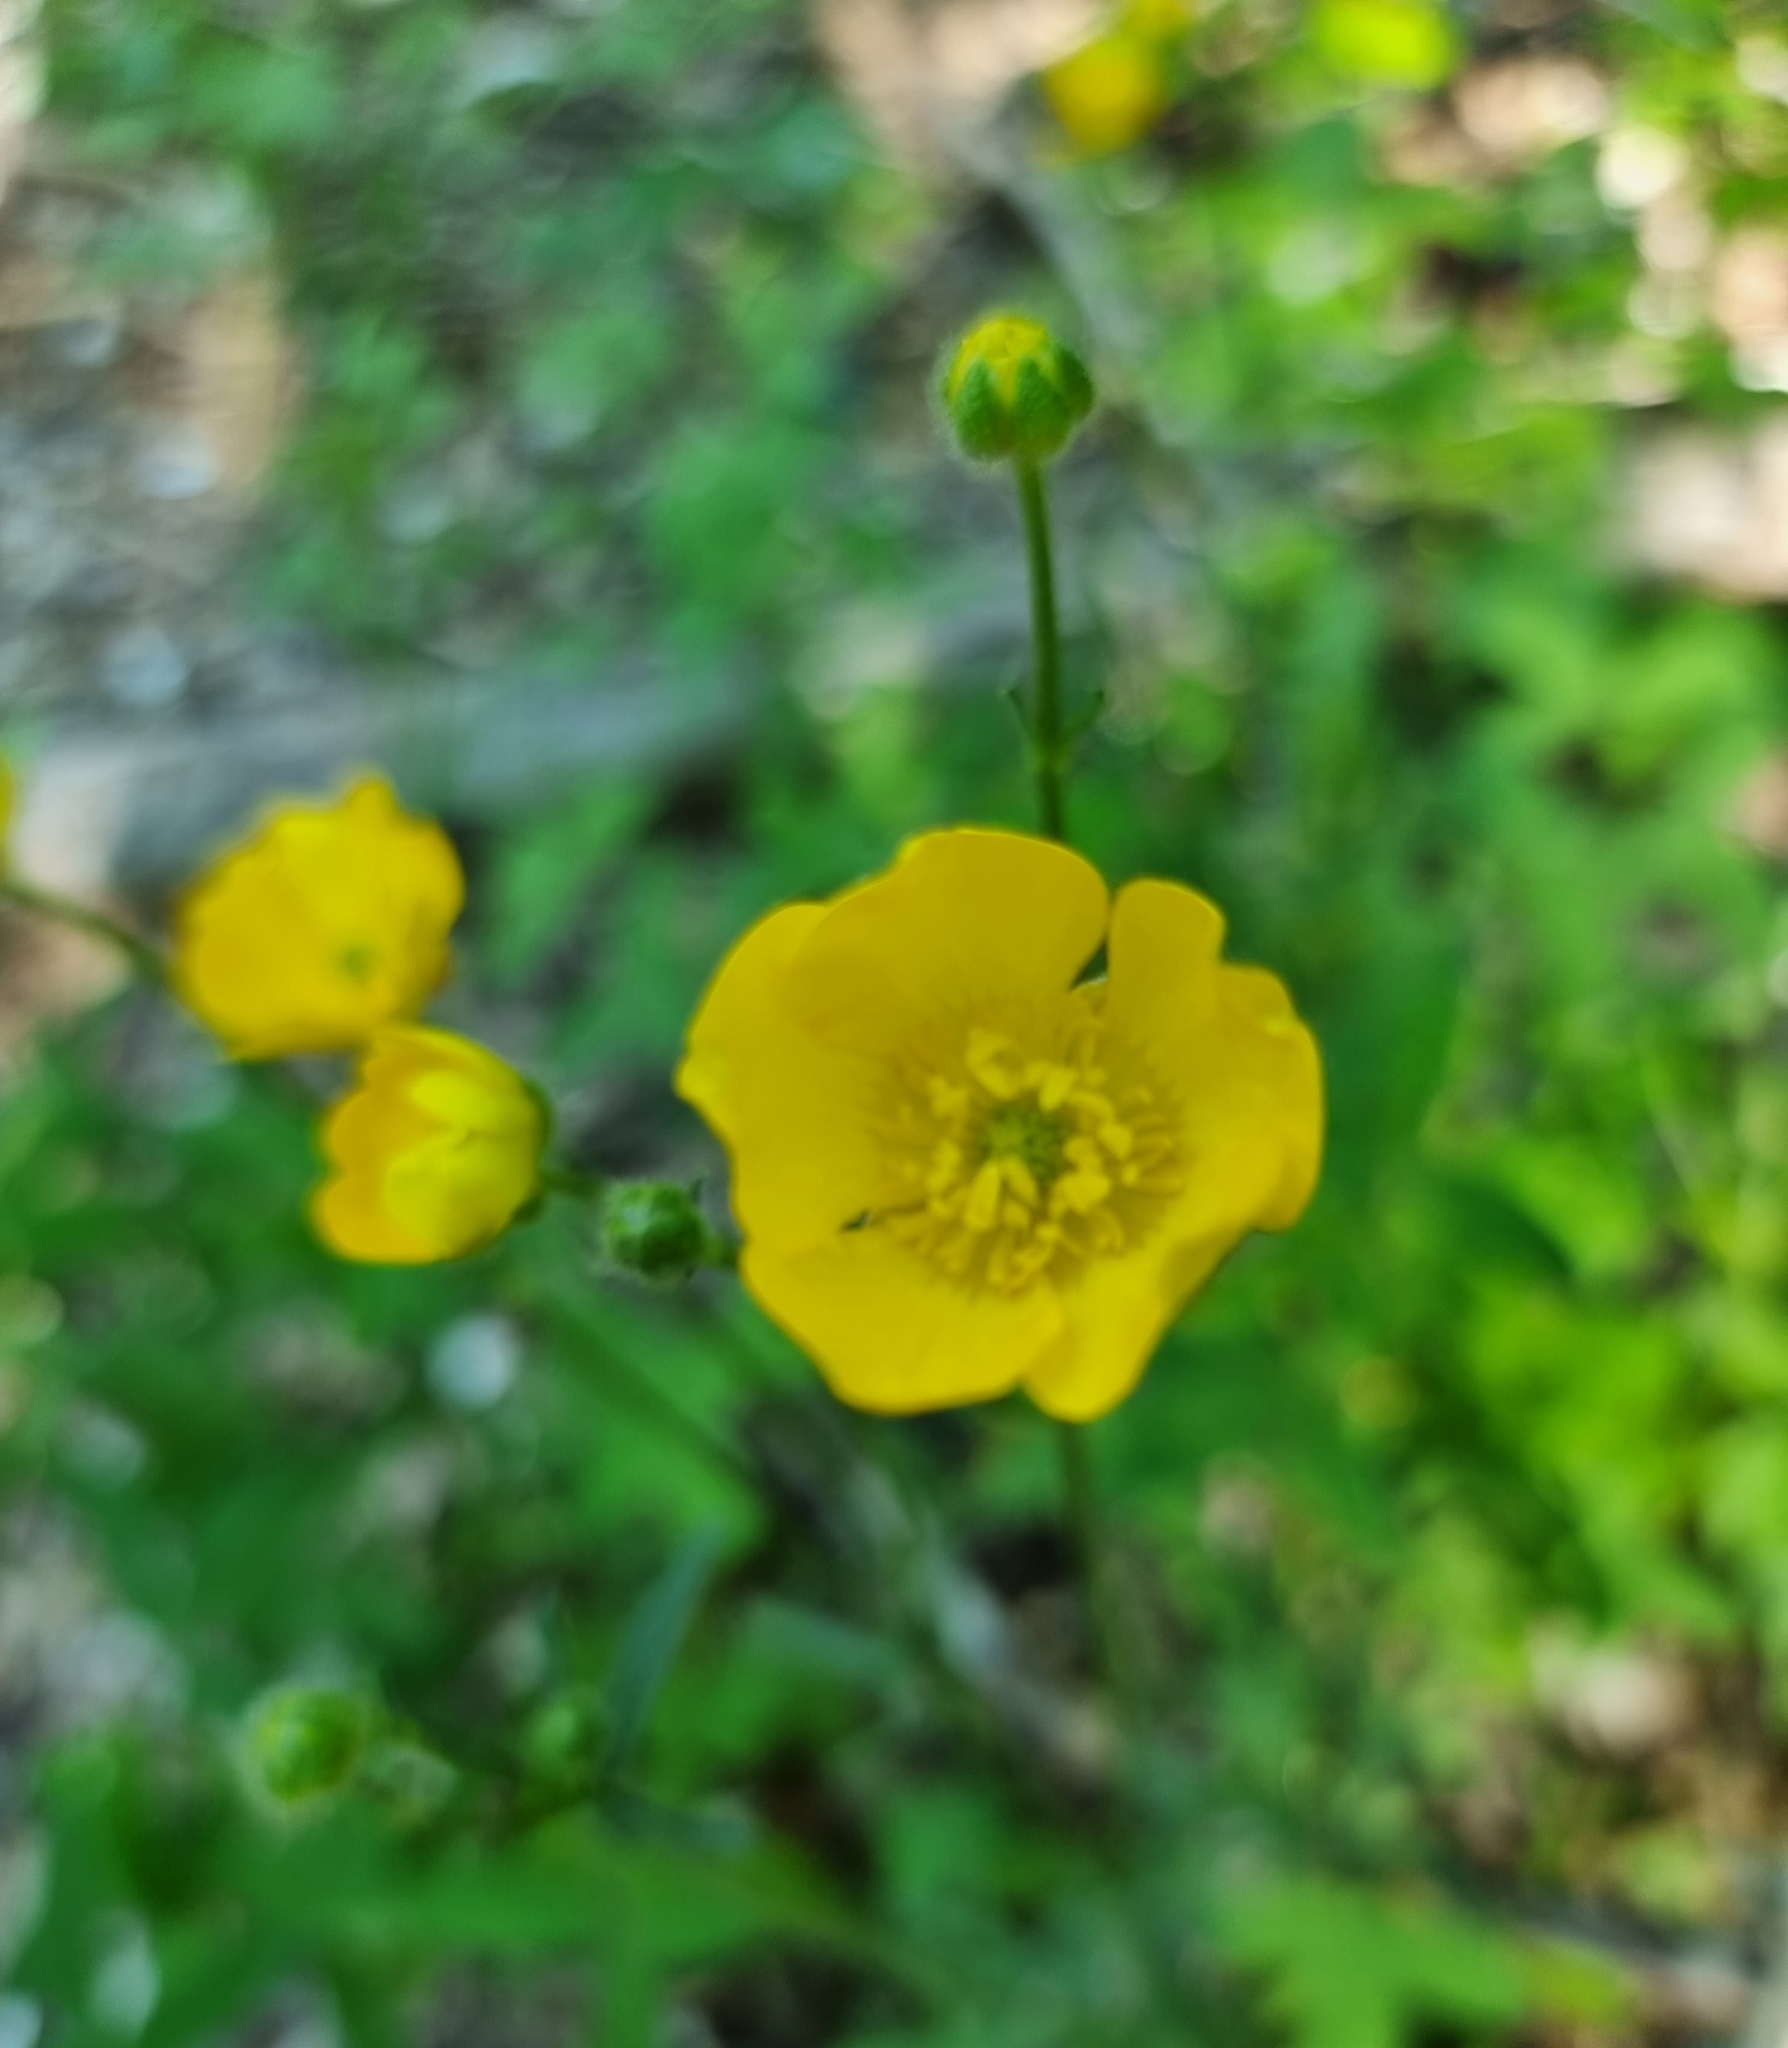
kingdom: Plantae
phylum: Tracheophyta
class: Magnoliopsida
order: Ranunculales
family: Ranunculaceae
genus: Ranunculus
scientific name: Ranunculus polyanthemos
